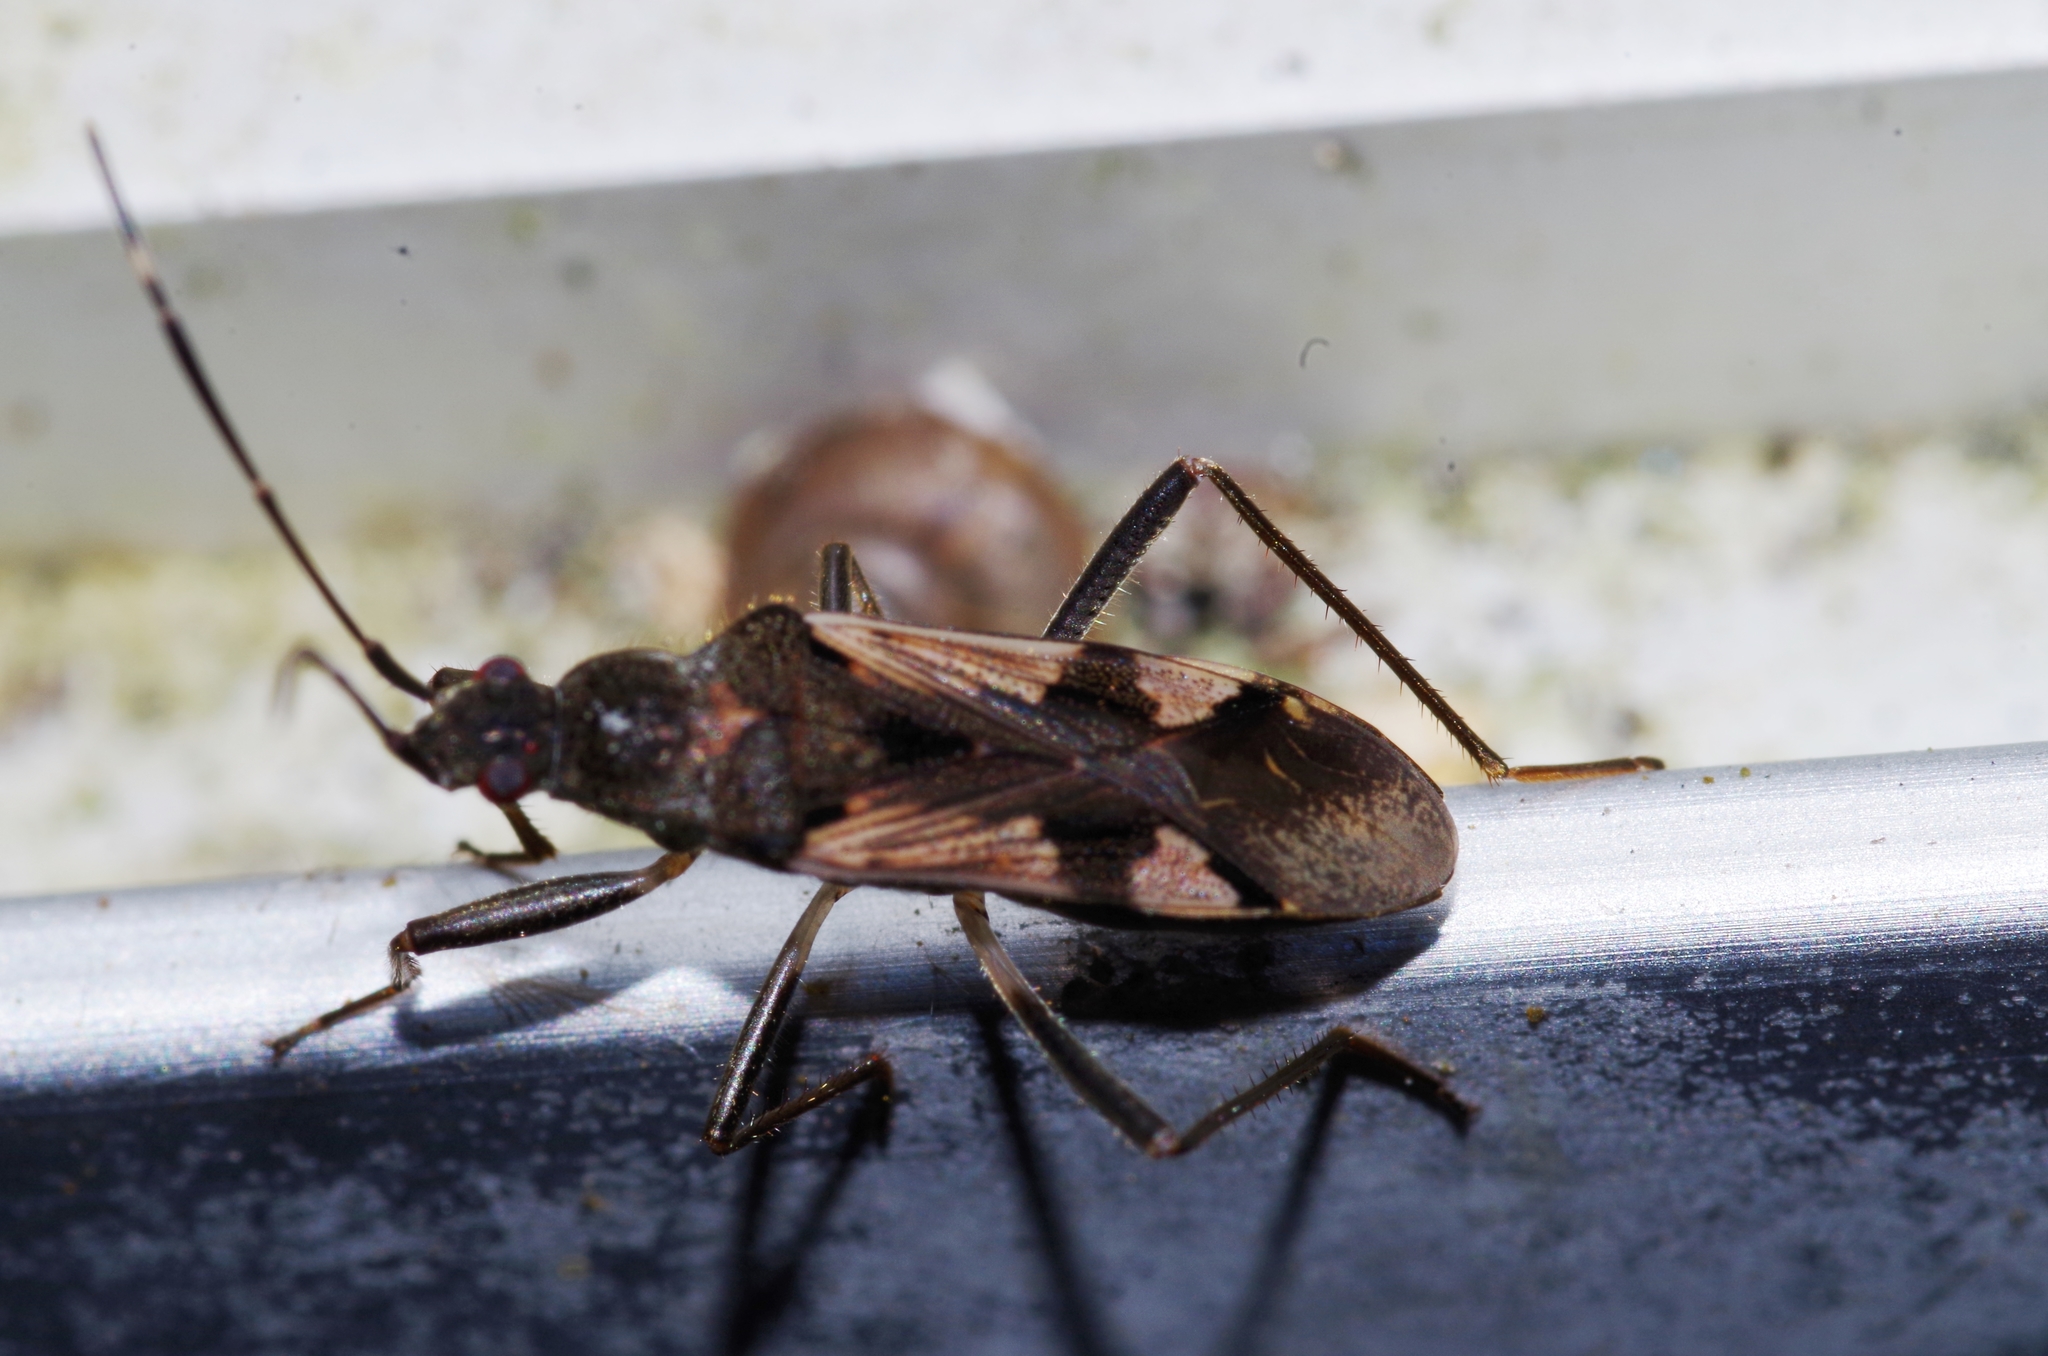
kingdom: Animalia
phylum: Arthropoda
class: Insecta
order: Hemiptera
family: Rhyparochromidae
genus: Metochus
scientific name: Metochus uniguttatus
